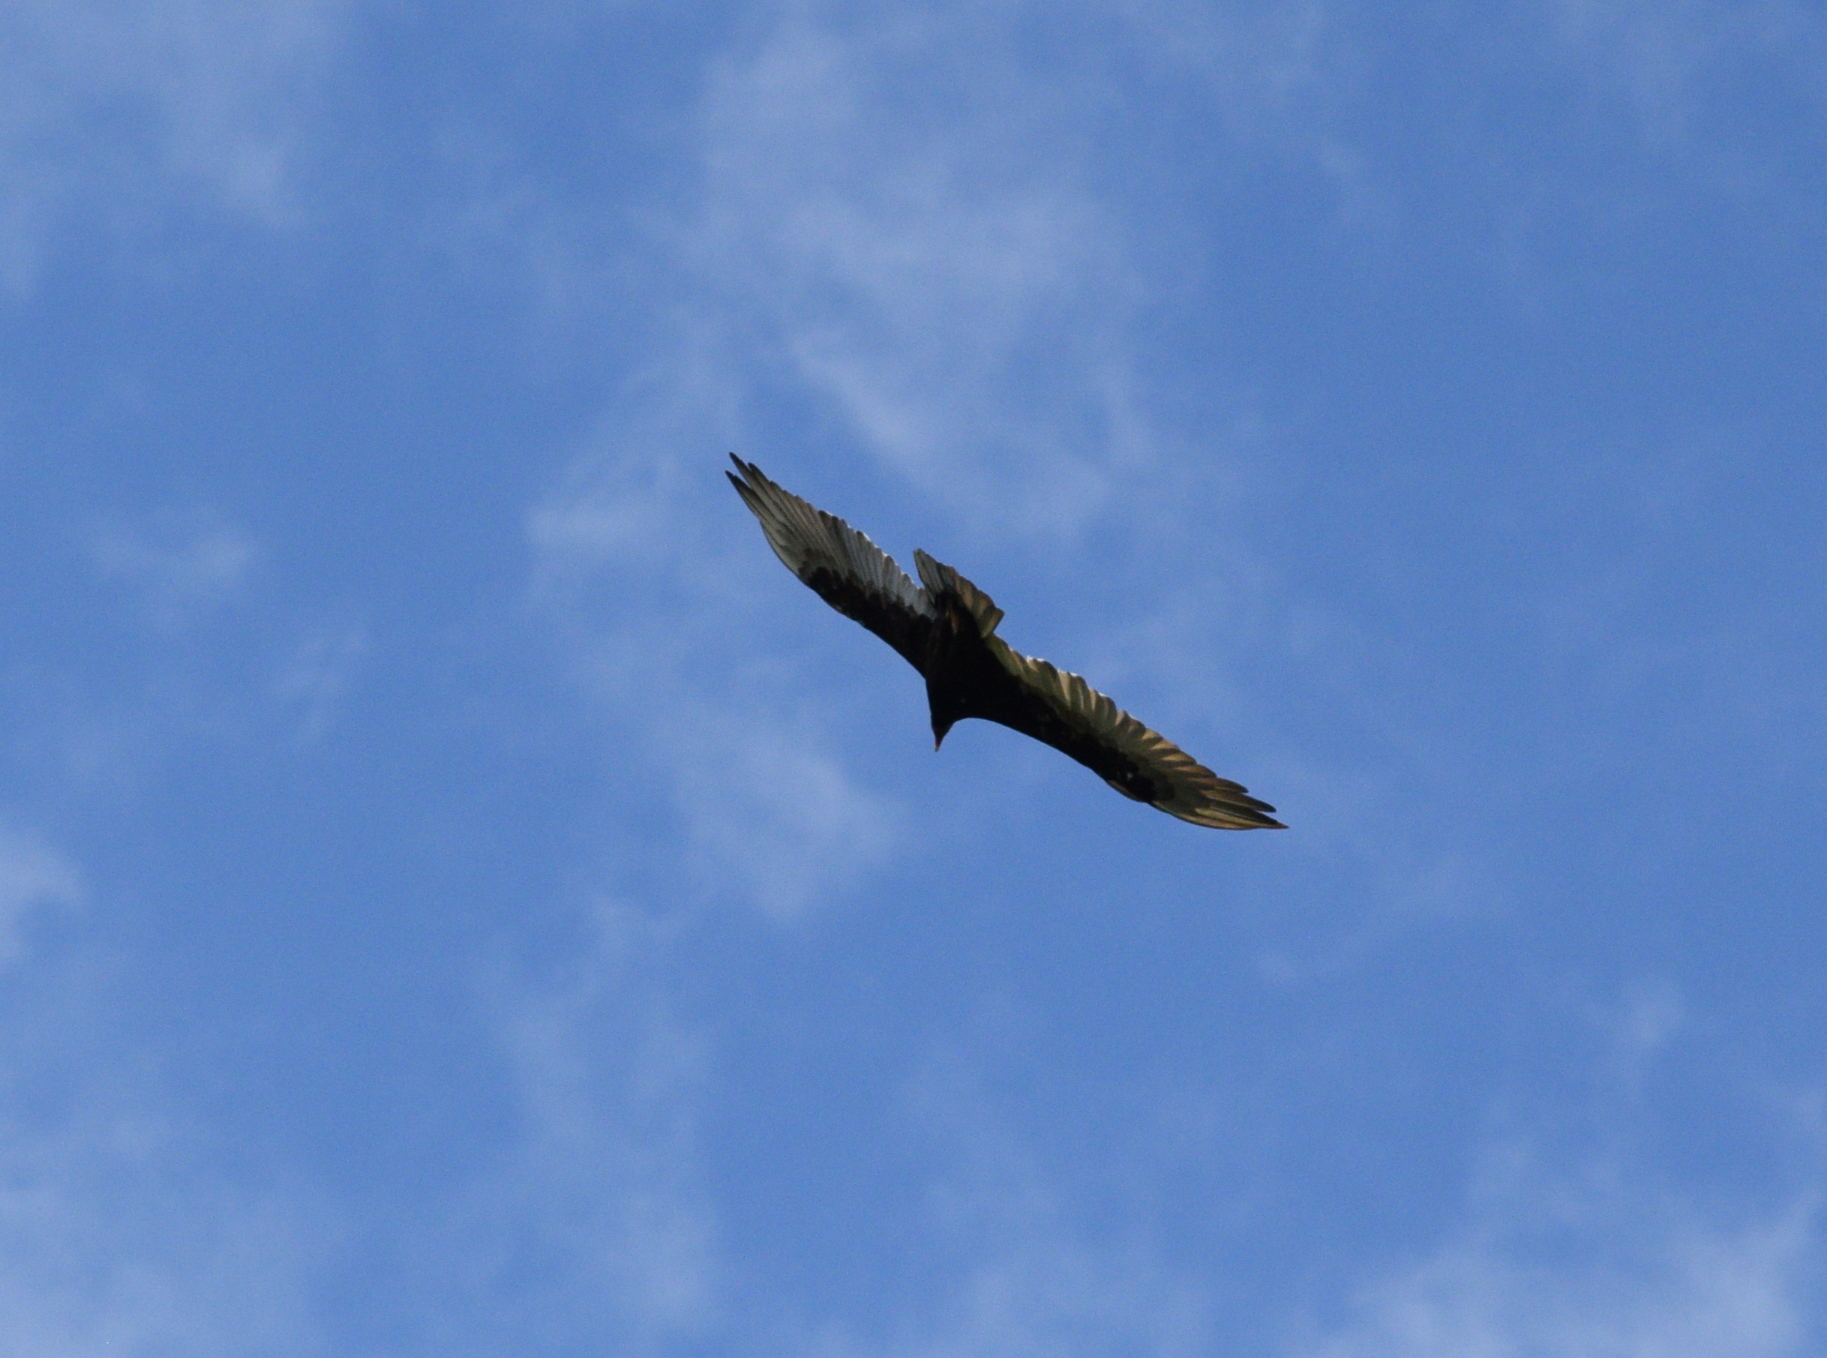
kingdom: Animalia
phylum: Chordata
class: Aves
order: Accipitriformes
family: Cathartidae
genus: Cathartes
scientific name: Cathartes aura
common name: Turkey vulture
